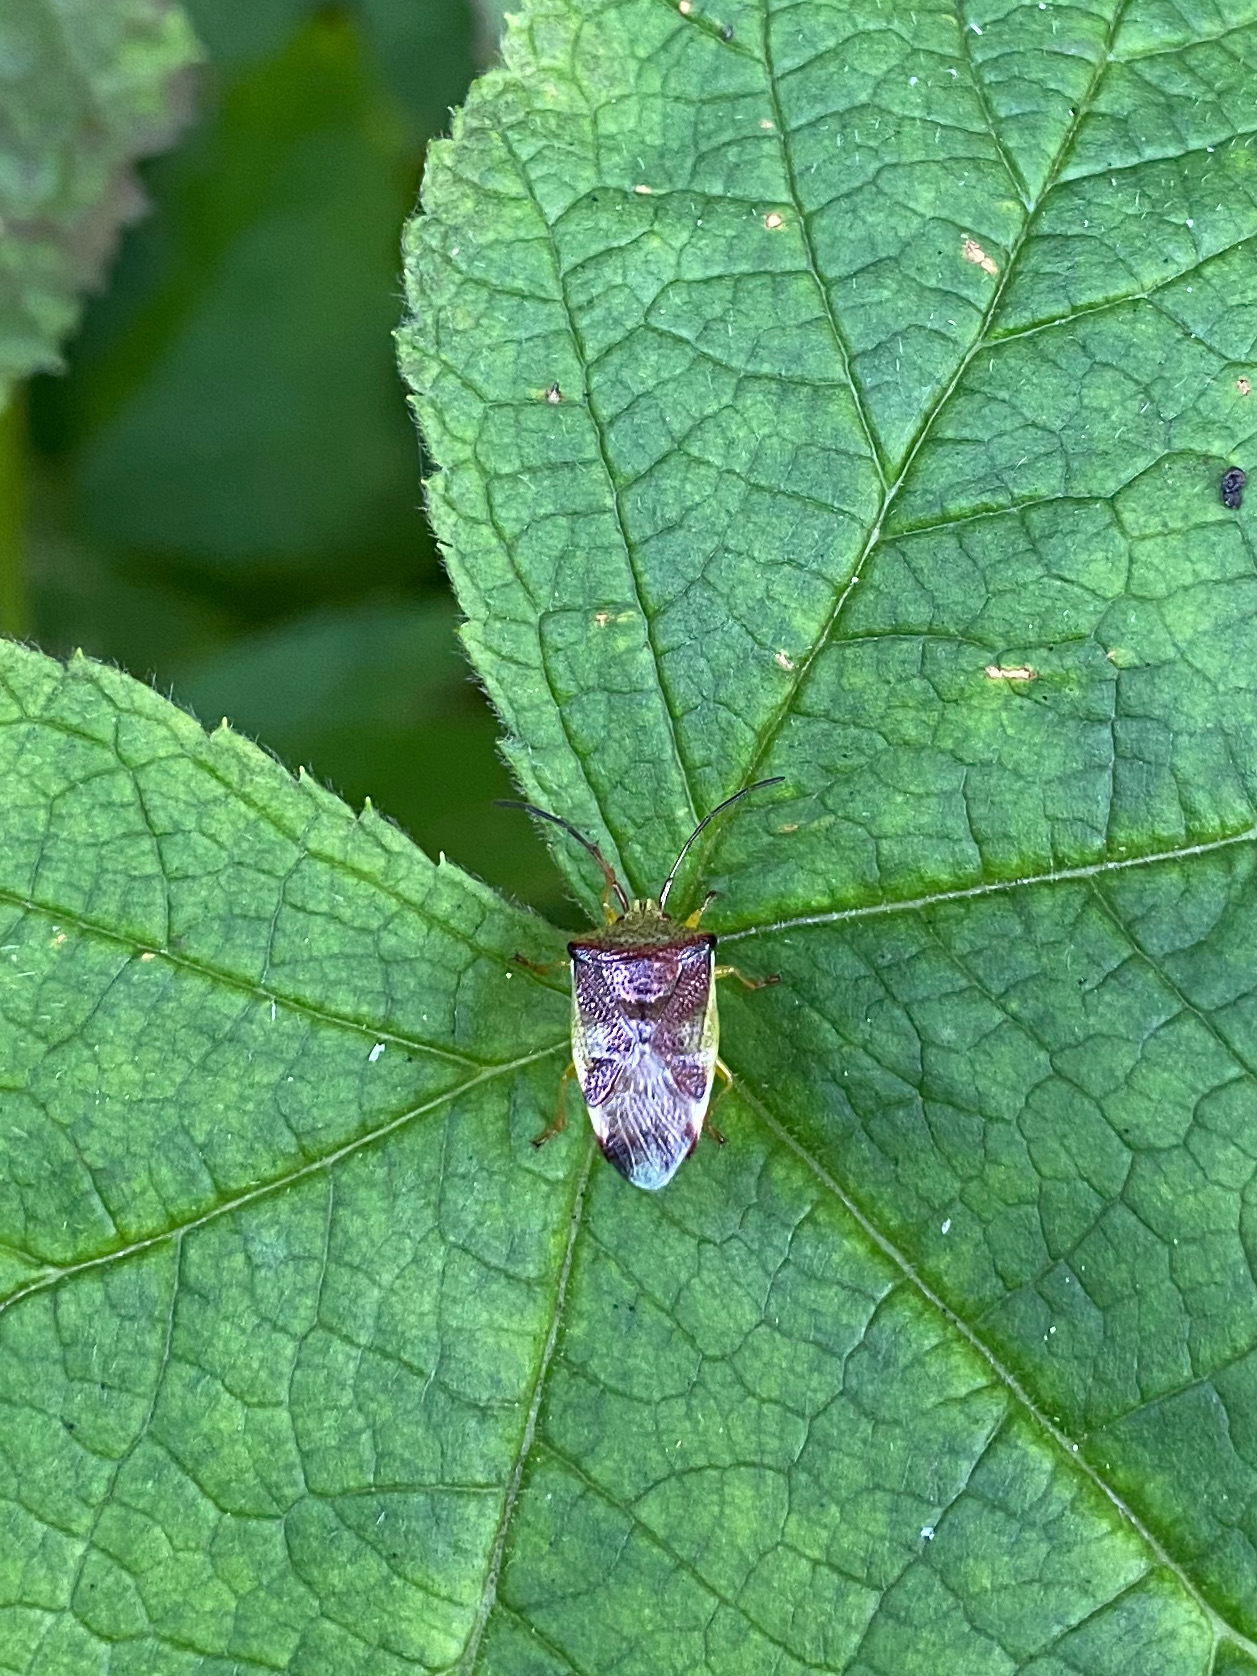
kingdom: Animalia
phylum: Arthropoda
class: Insecta
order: Hemiptera
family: Acanthosomatidae
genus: Elasmostethus
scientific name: Elasmostethus cruciatus
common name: Red-cross shield bug
